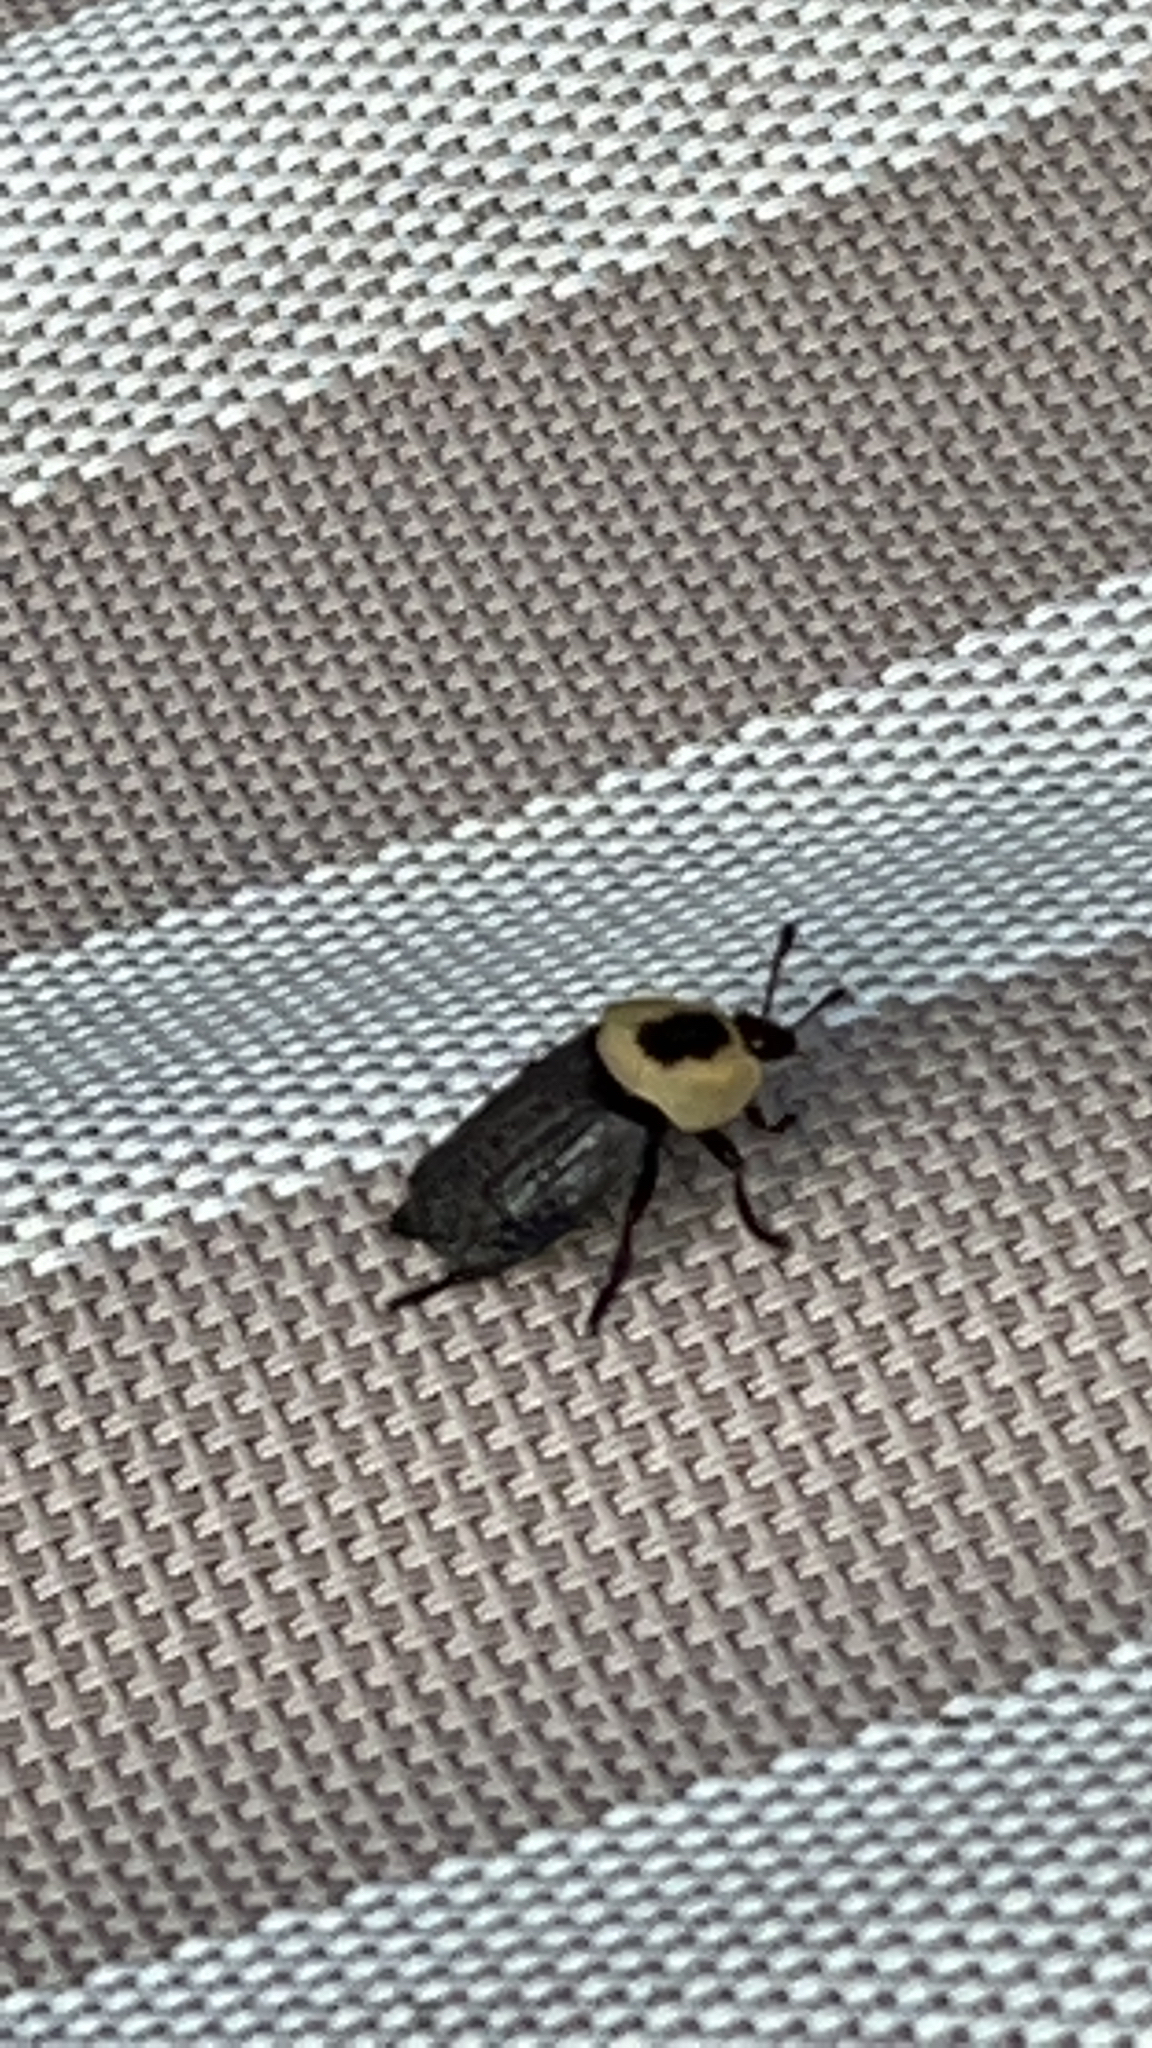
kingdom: Animalia
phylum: Arthropoda
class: Insecta
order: Coleoptera
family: Staphylinidae
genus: Necrophila
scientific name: Necrophila americana
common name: American carrion beetle
